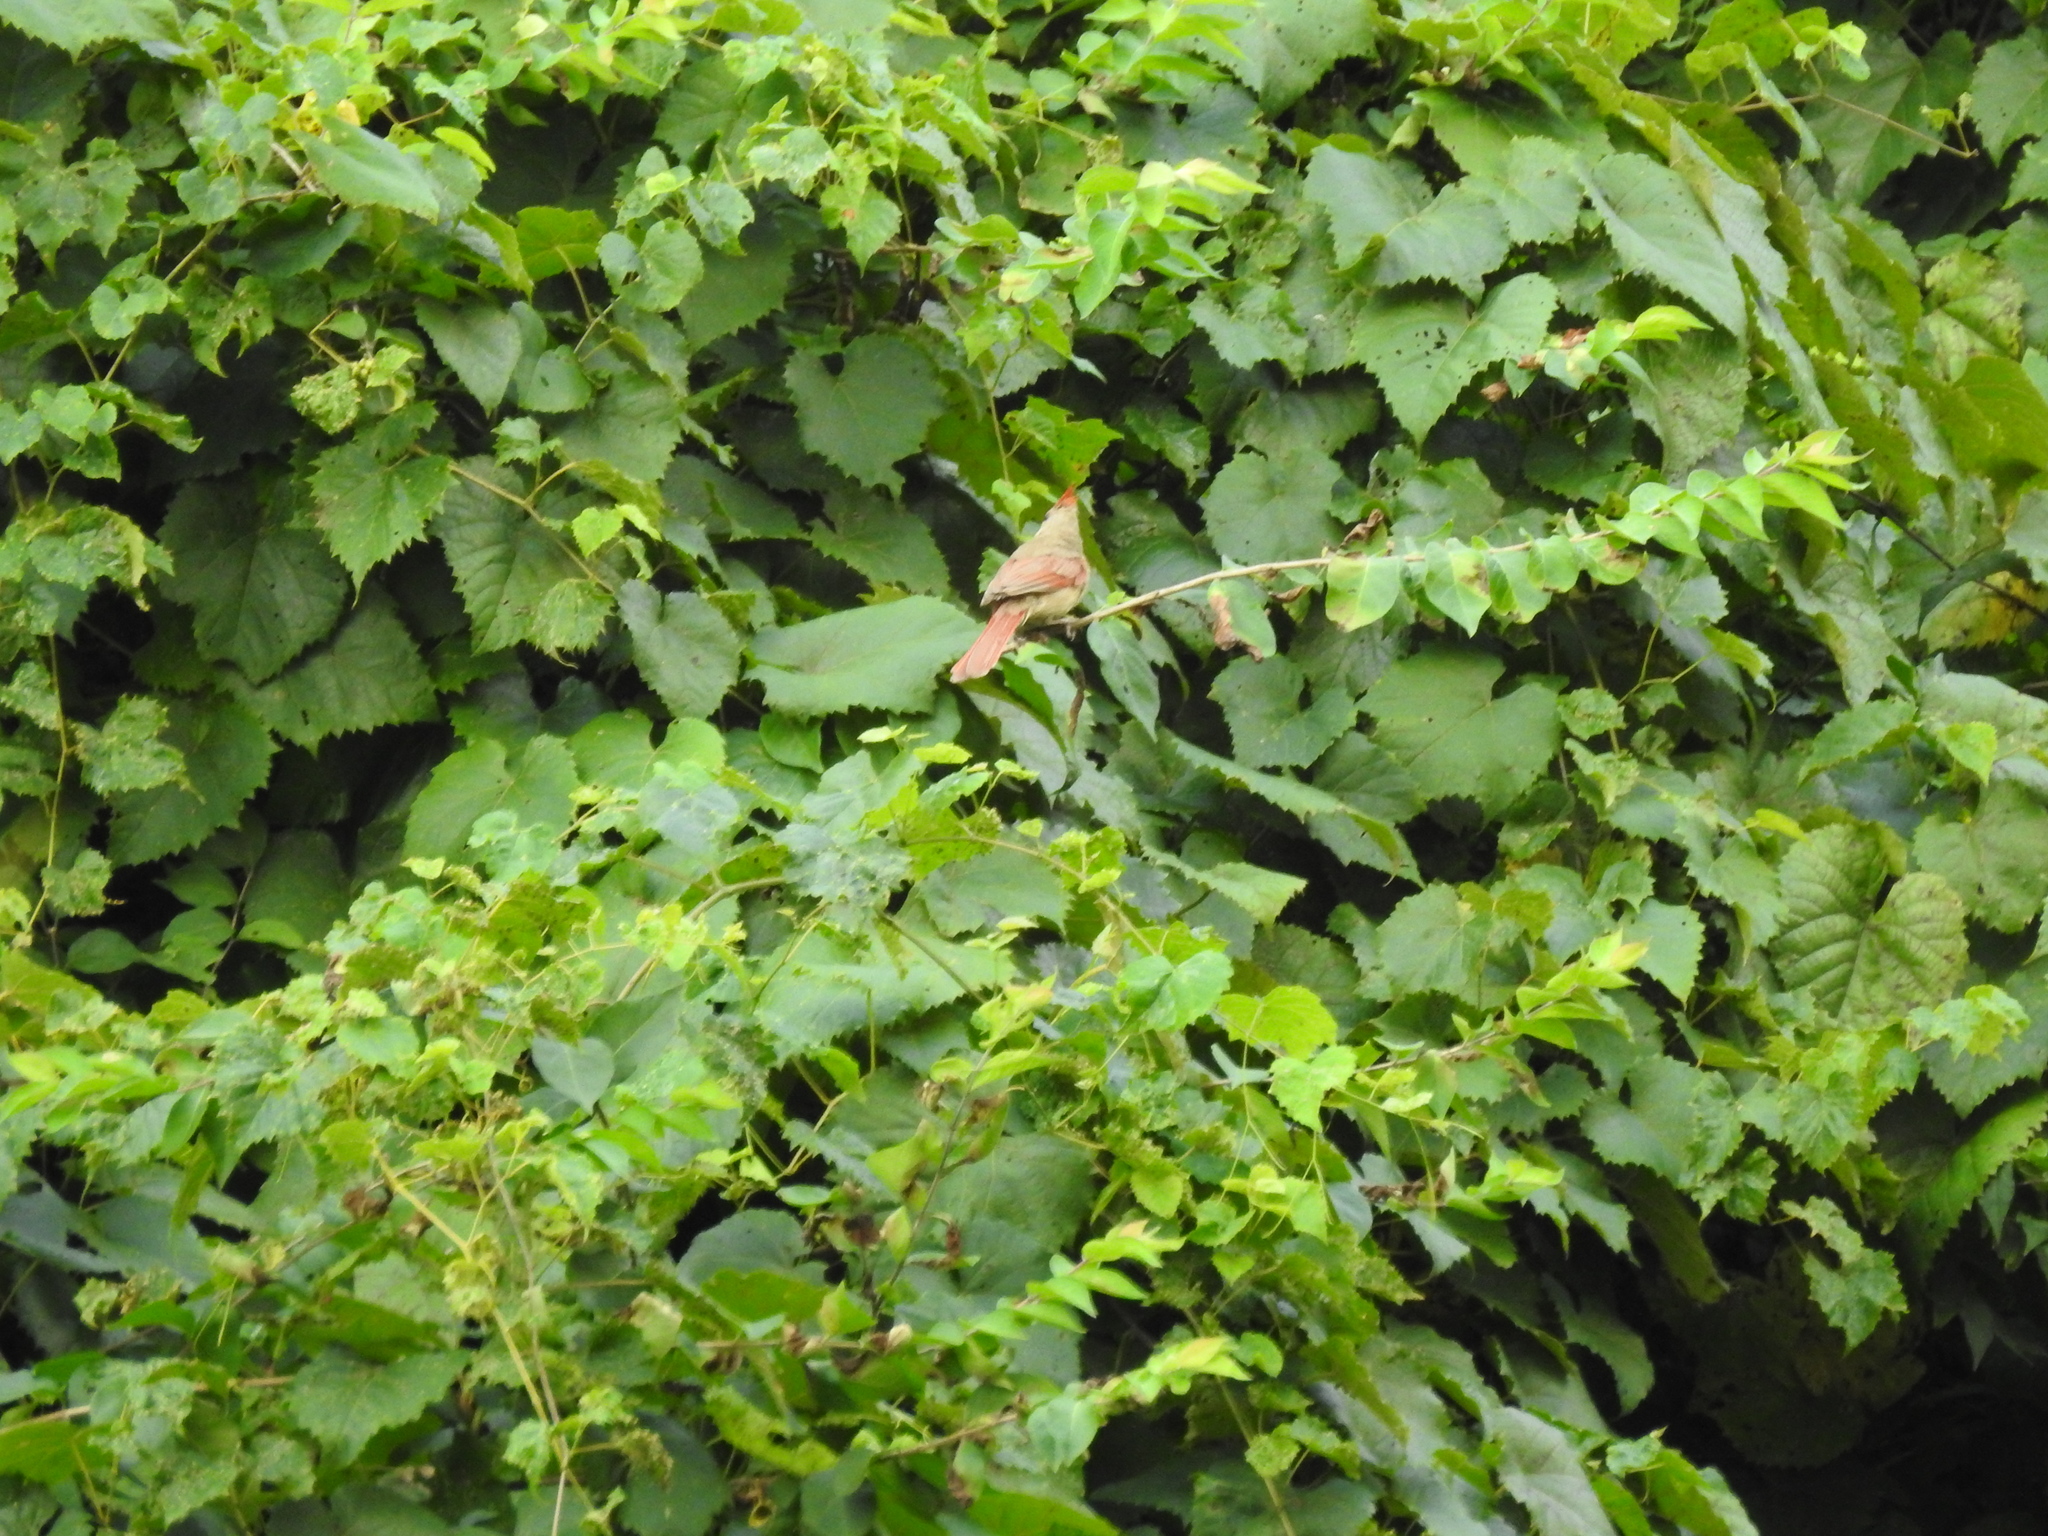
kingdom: Animalia
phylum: Chordata
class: Aves
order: Passeriformes
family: Cardinalidae
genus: Cardinalis
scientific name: Cardinalis cardinalis
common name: Northern cardinal
